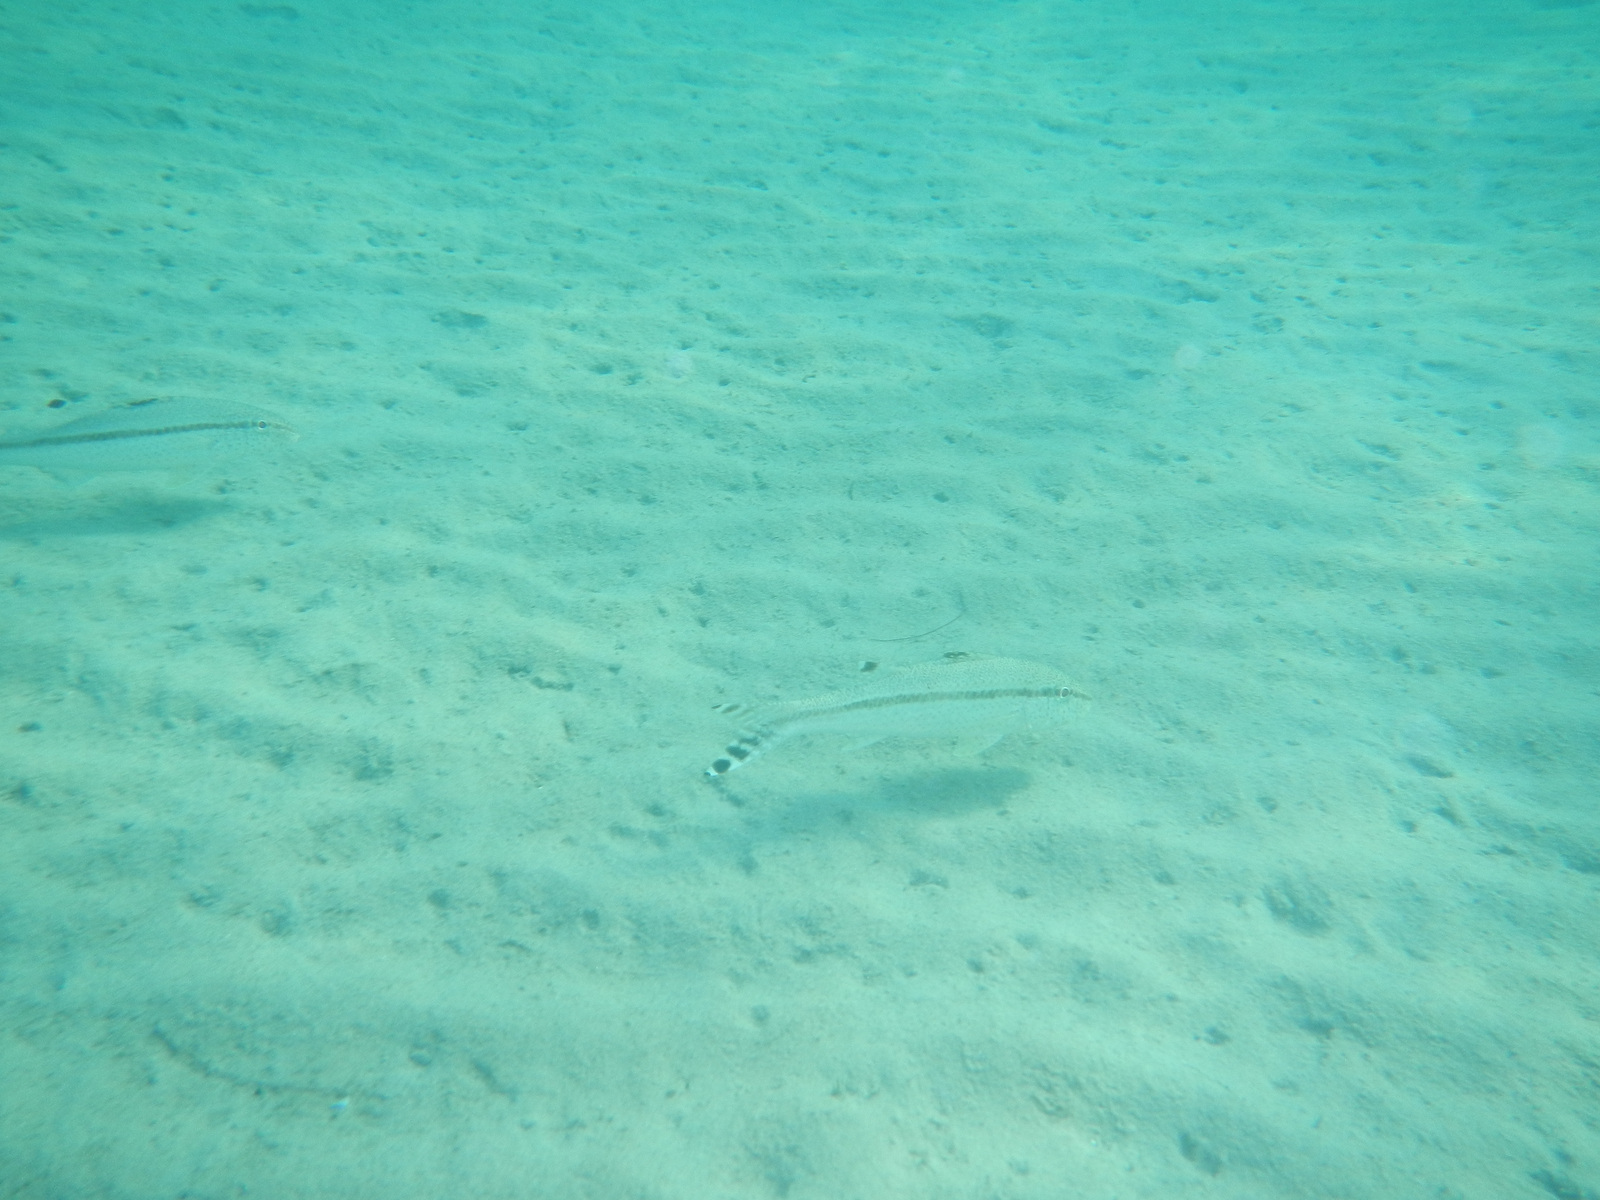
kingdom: Animalia
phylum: Chordata
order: Perciformes
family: Mullidae
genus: Upeneus
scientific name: Upeneus tragula
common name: Freckled goatfish
